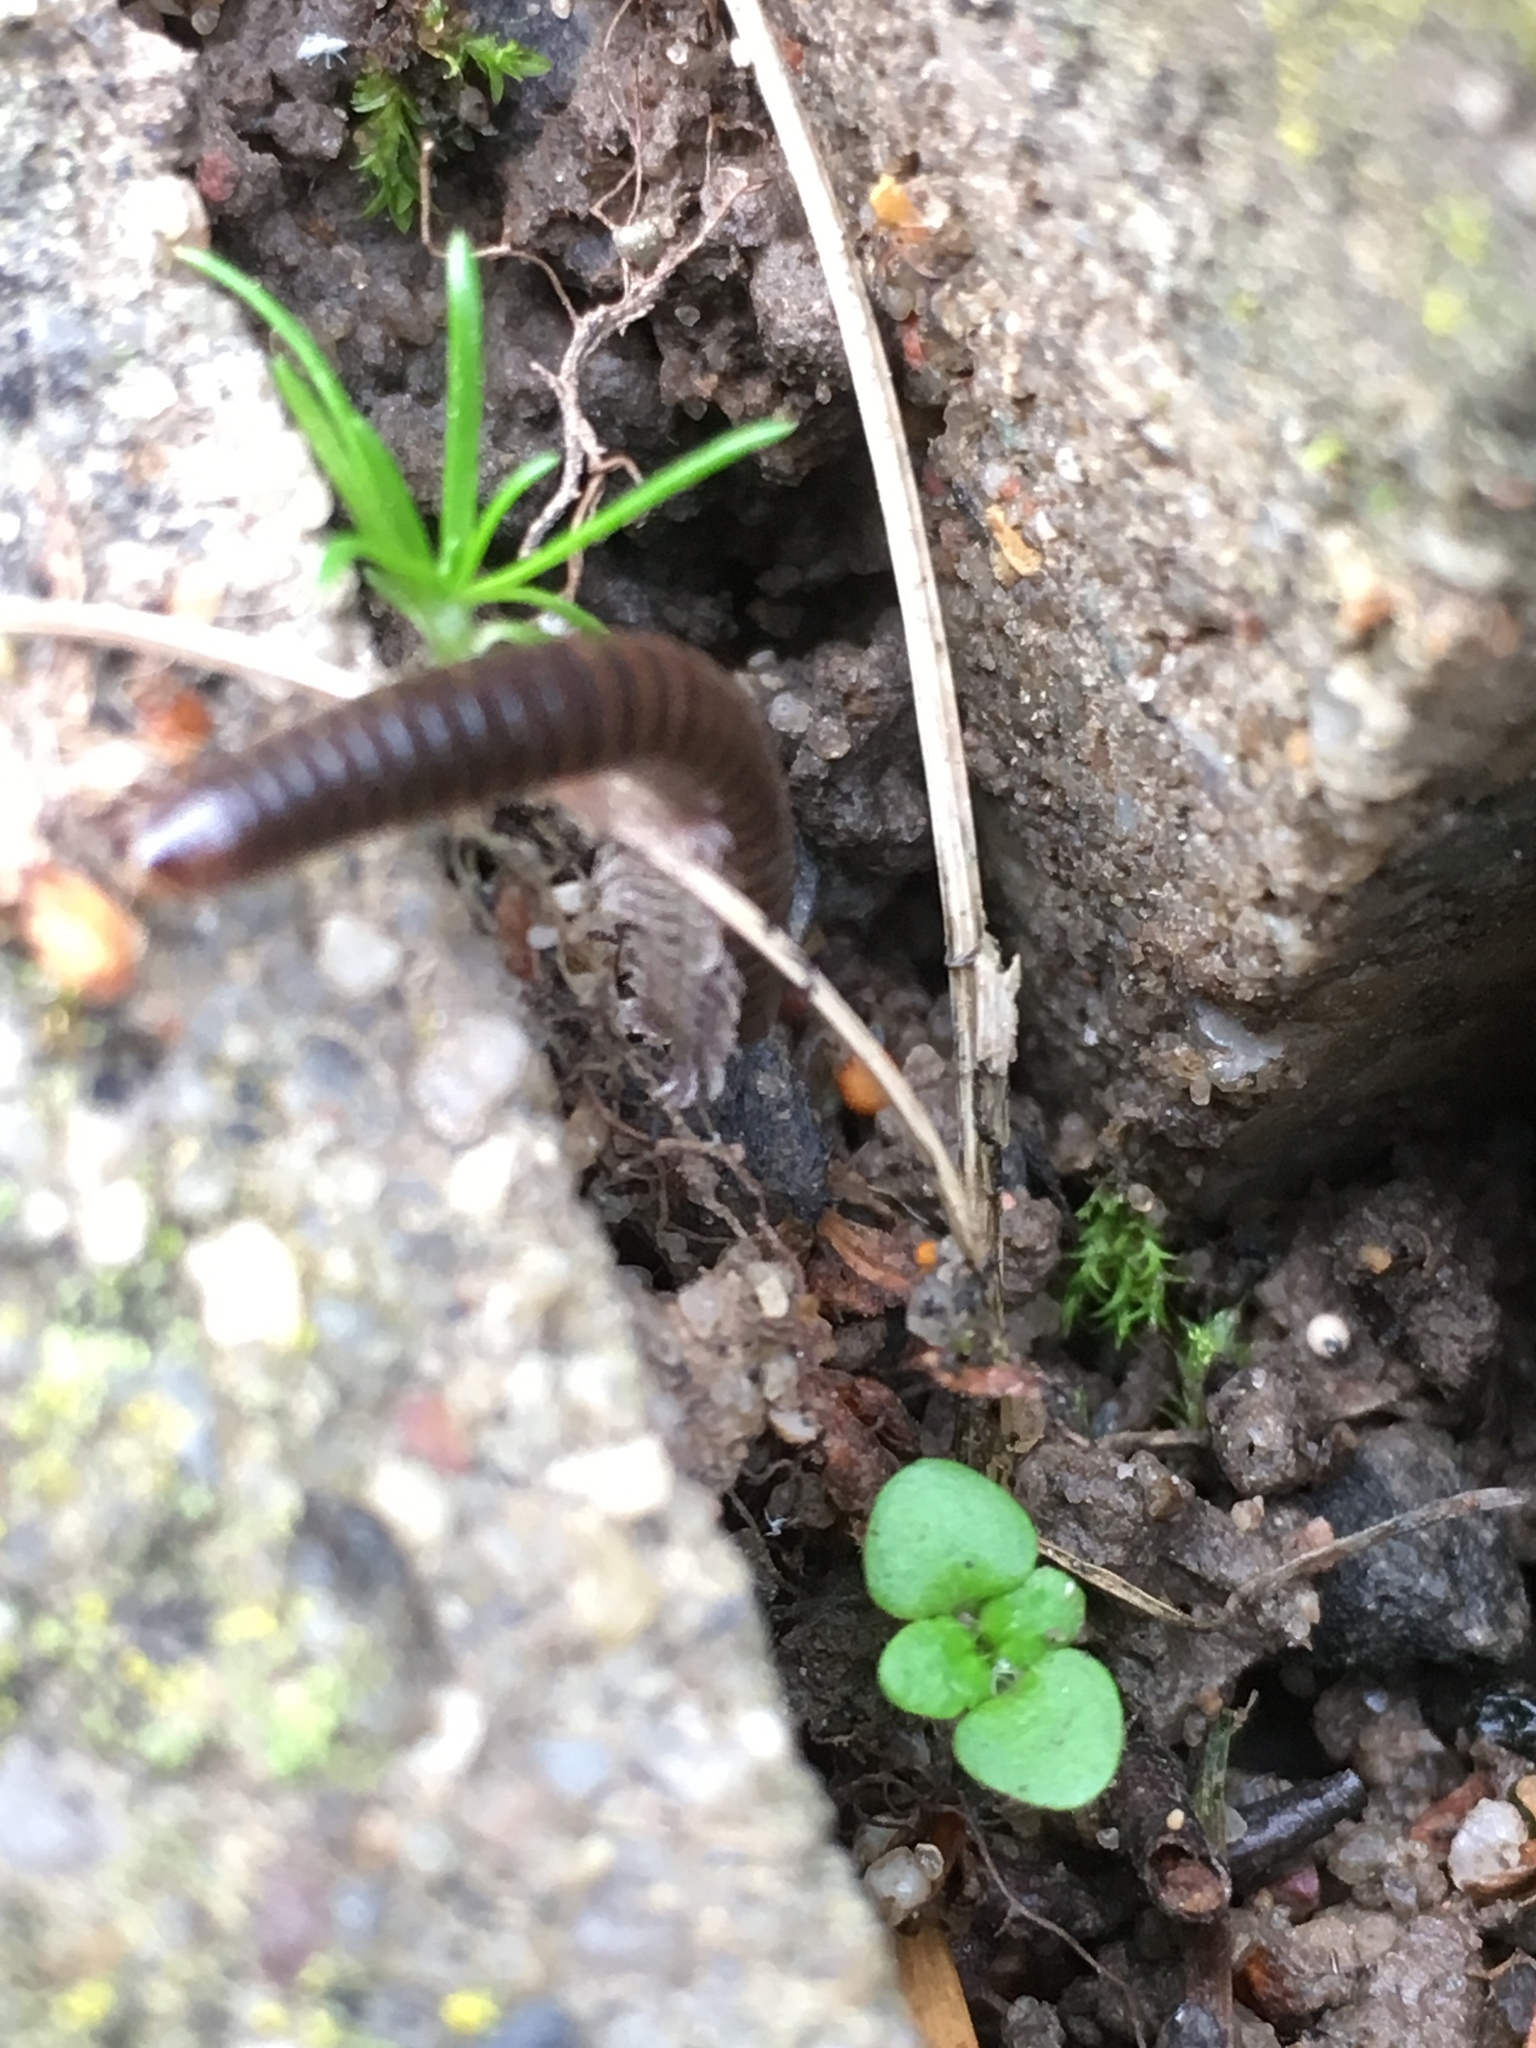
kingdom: Animalia
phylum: Arthropoda
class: Diplopoda
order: Julida
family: Julidae
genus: Cylindroiulus
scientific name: Cylindroiulus caeruleocinctus
